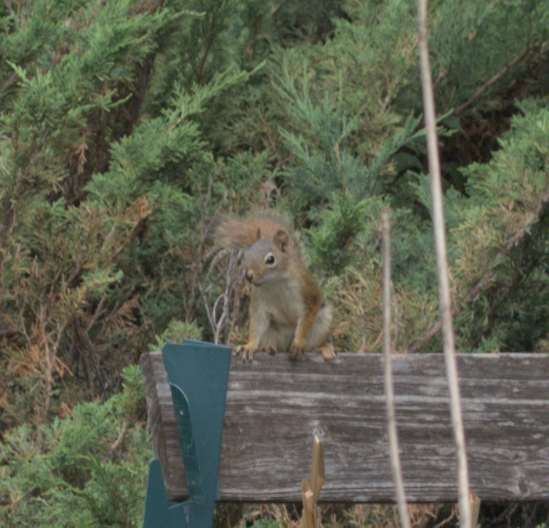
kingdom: Animalia
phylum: Chordata
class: Mammalia
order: Rodentia
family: Sciuridae
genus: Tamiasciurus
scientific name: Tamiasciurus hudsonicus
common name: Red squirrel
